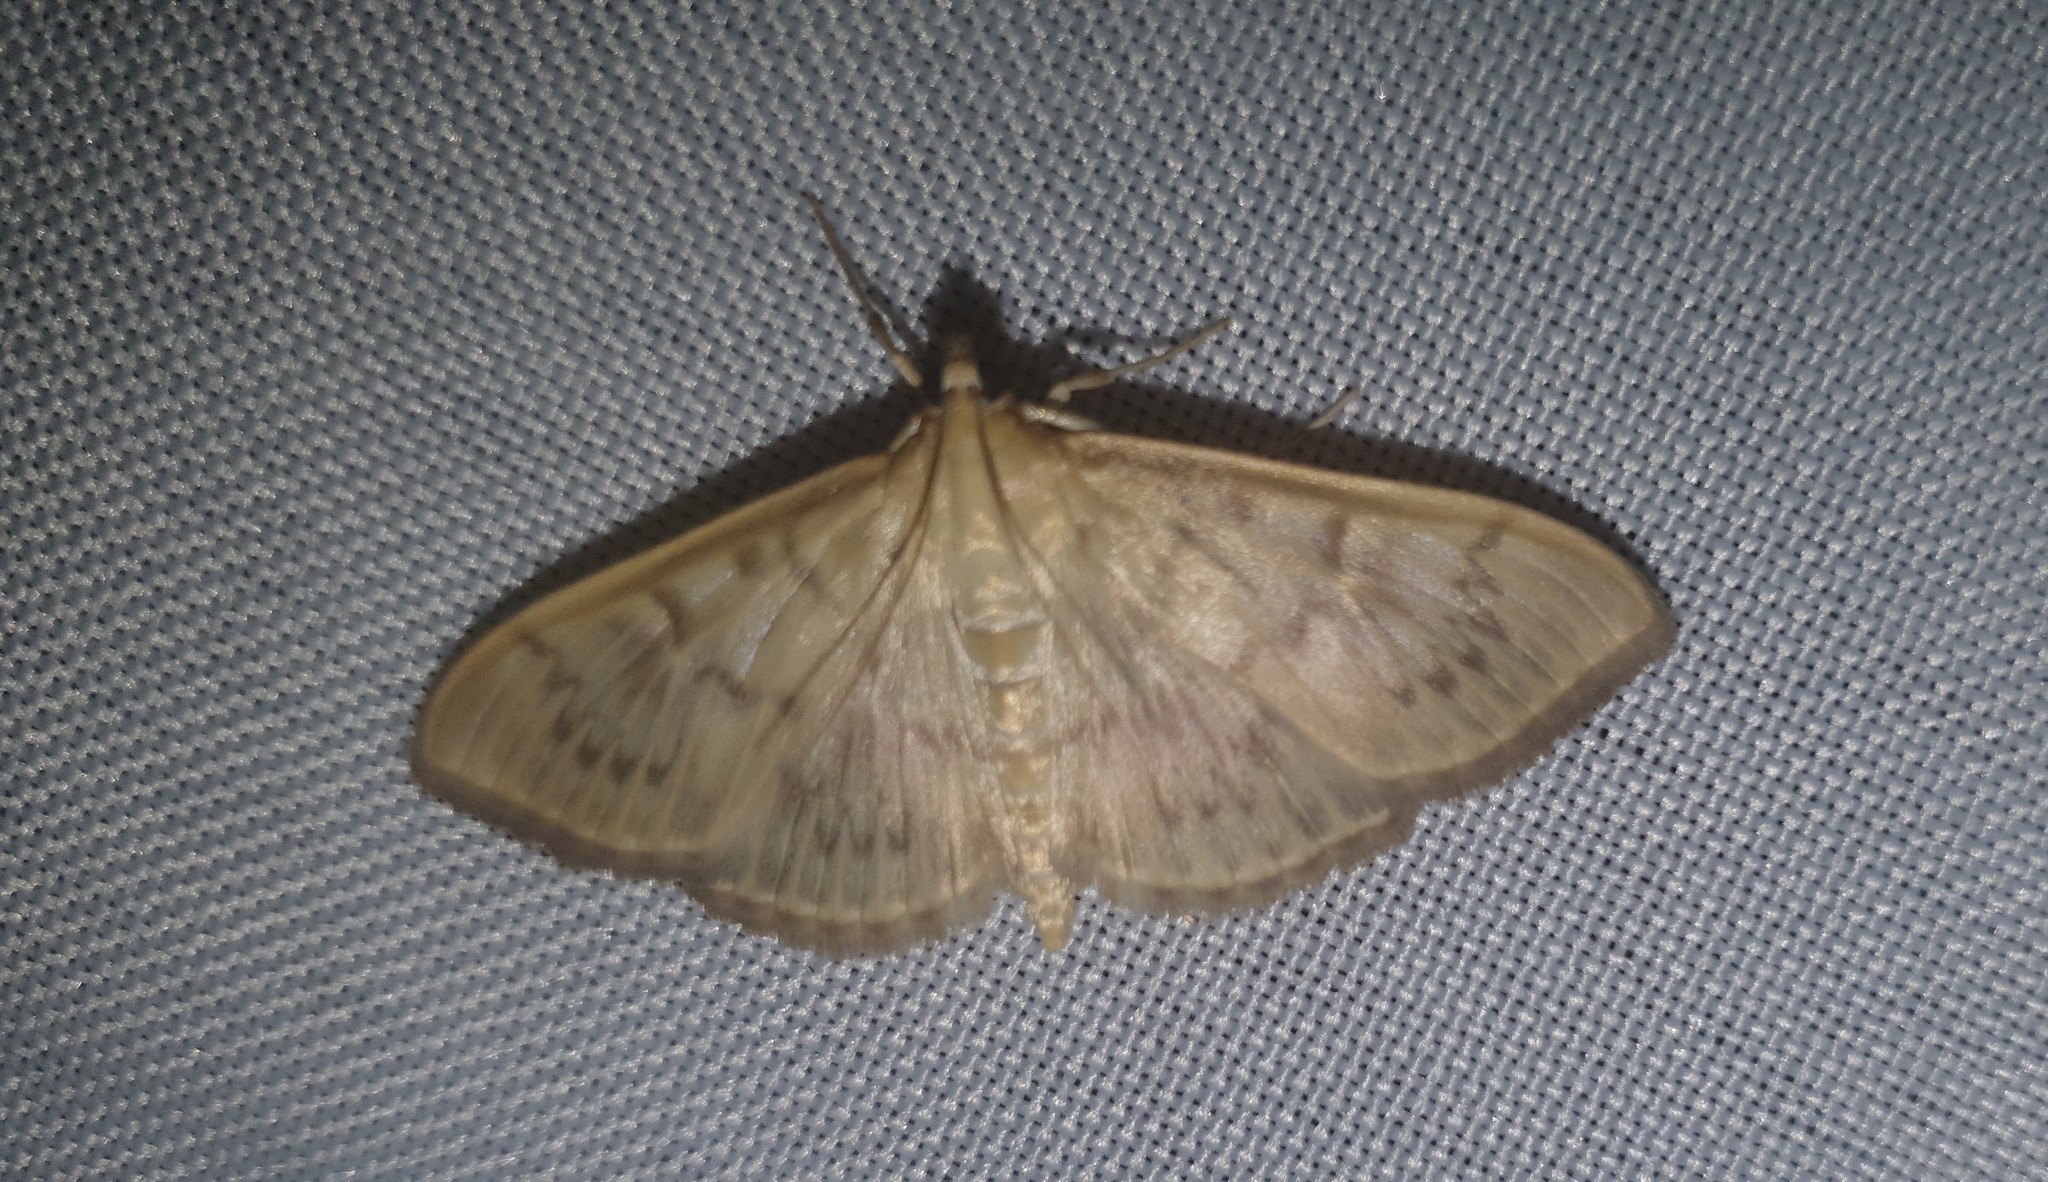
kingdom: Animalia
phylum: Arthropoda
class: Insecta
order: Lepidoptera
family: Crambidae
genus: Patania
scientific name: Patania ruralis
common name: Mother of pearl
